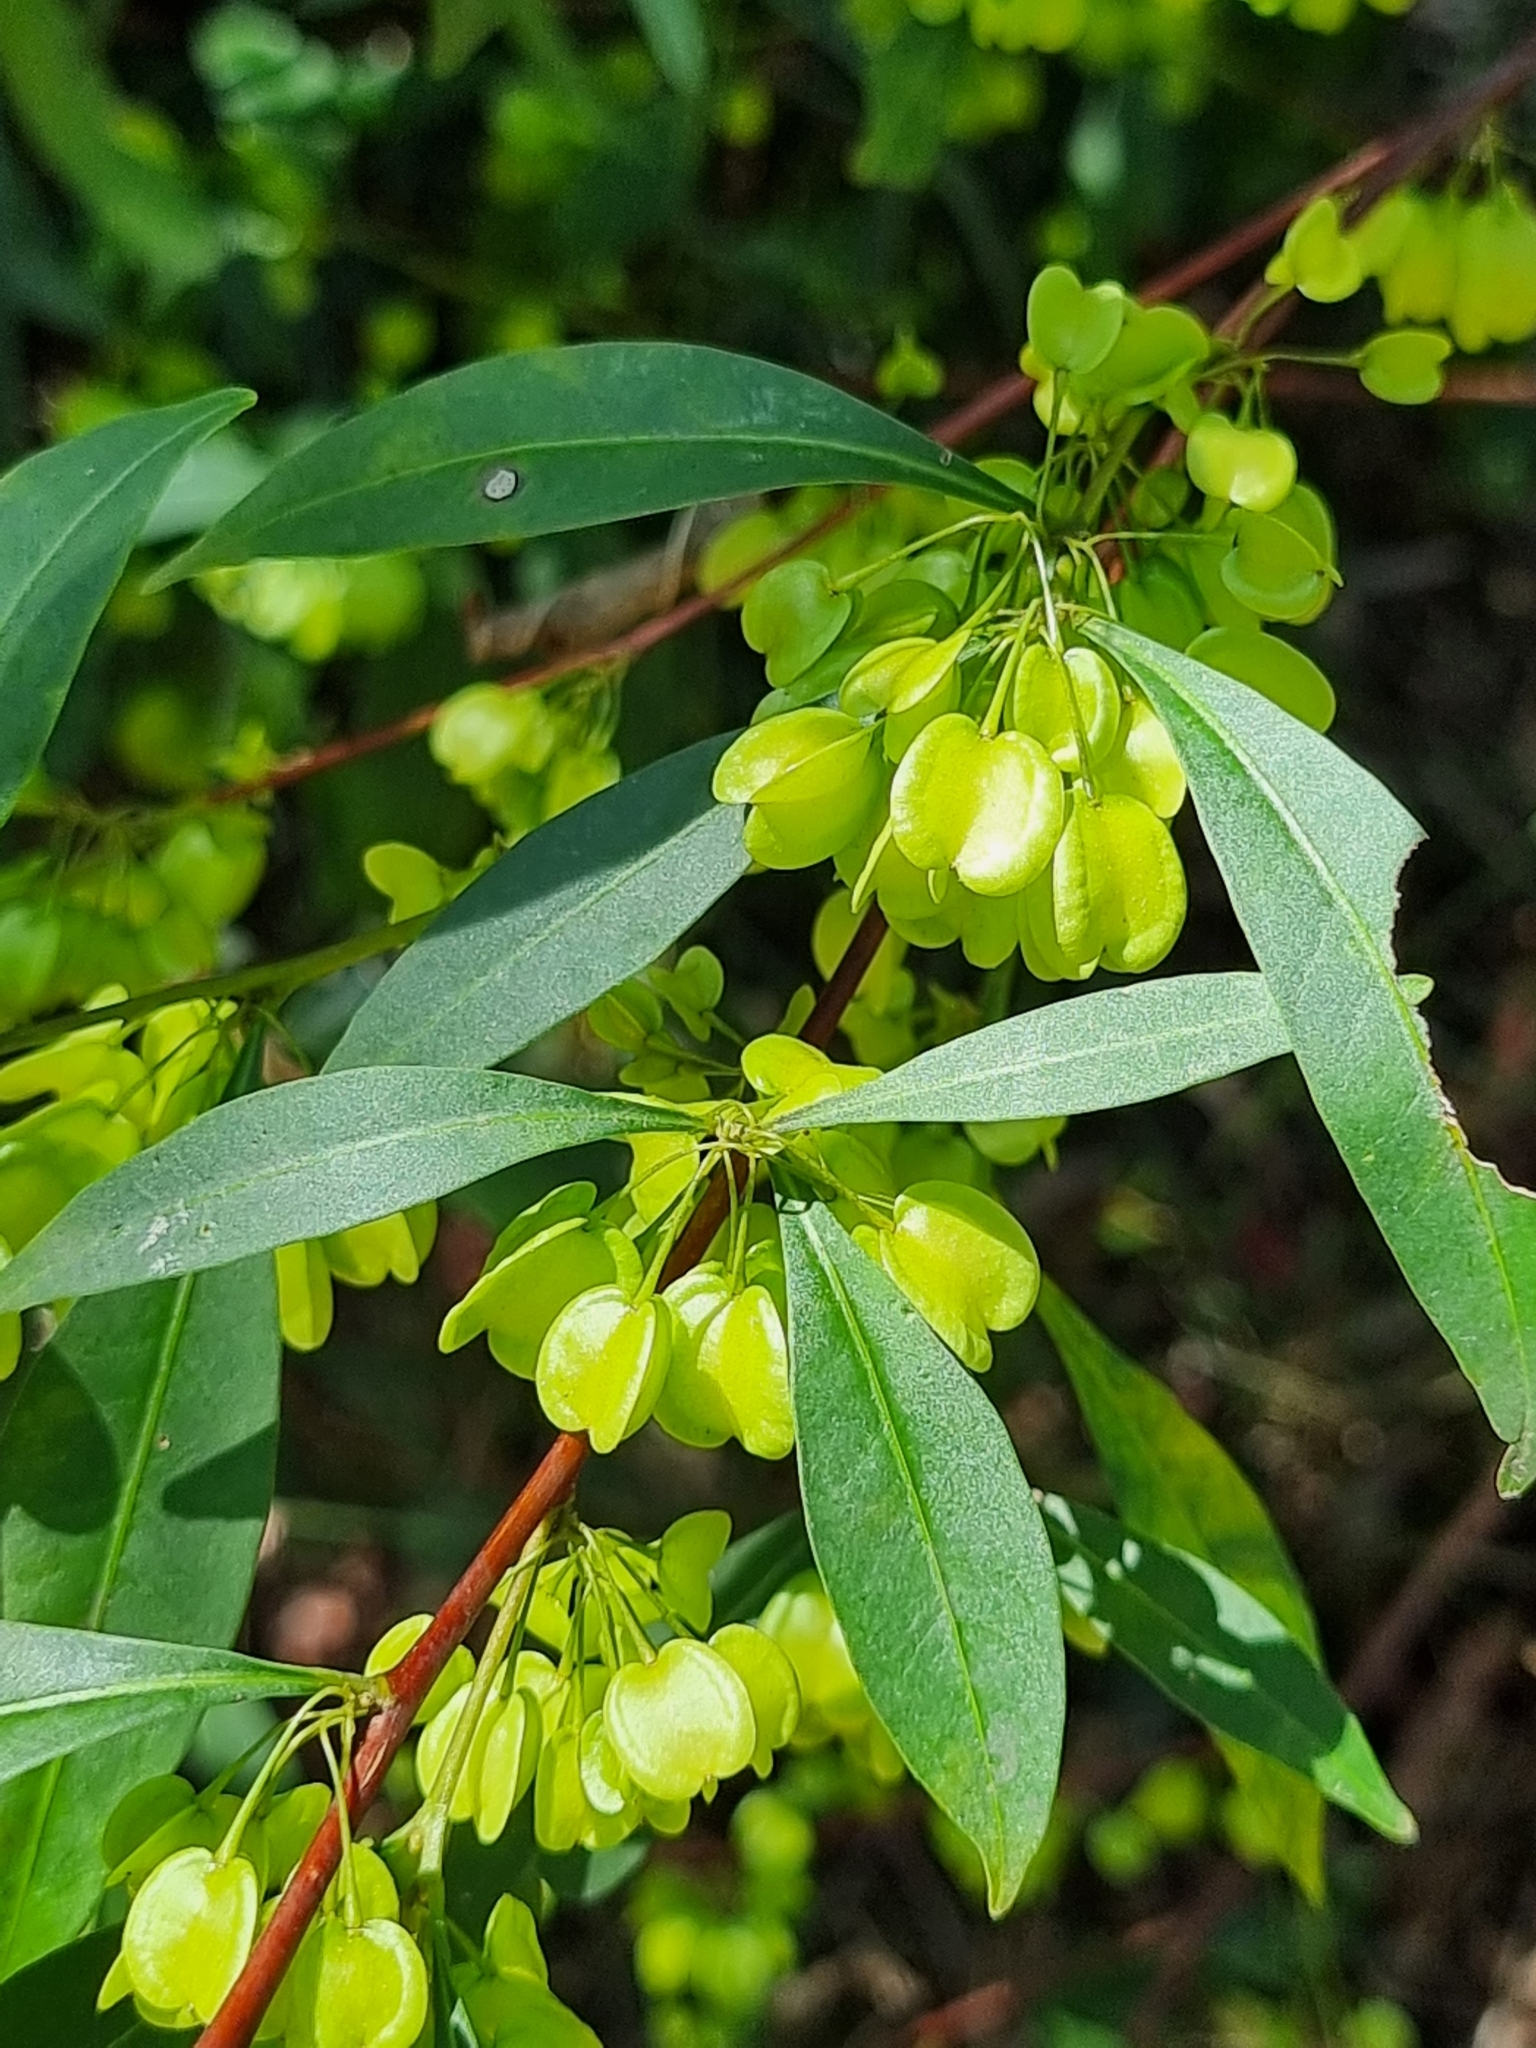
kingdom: Plantae
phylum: Tracheophyta
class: Magnoliopsida
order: Sapindales
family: Sapindaceae
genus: Dodonaea
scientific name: Dodonaea triquetra
